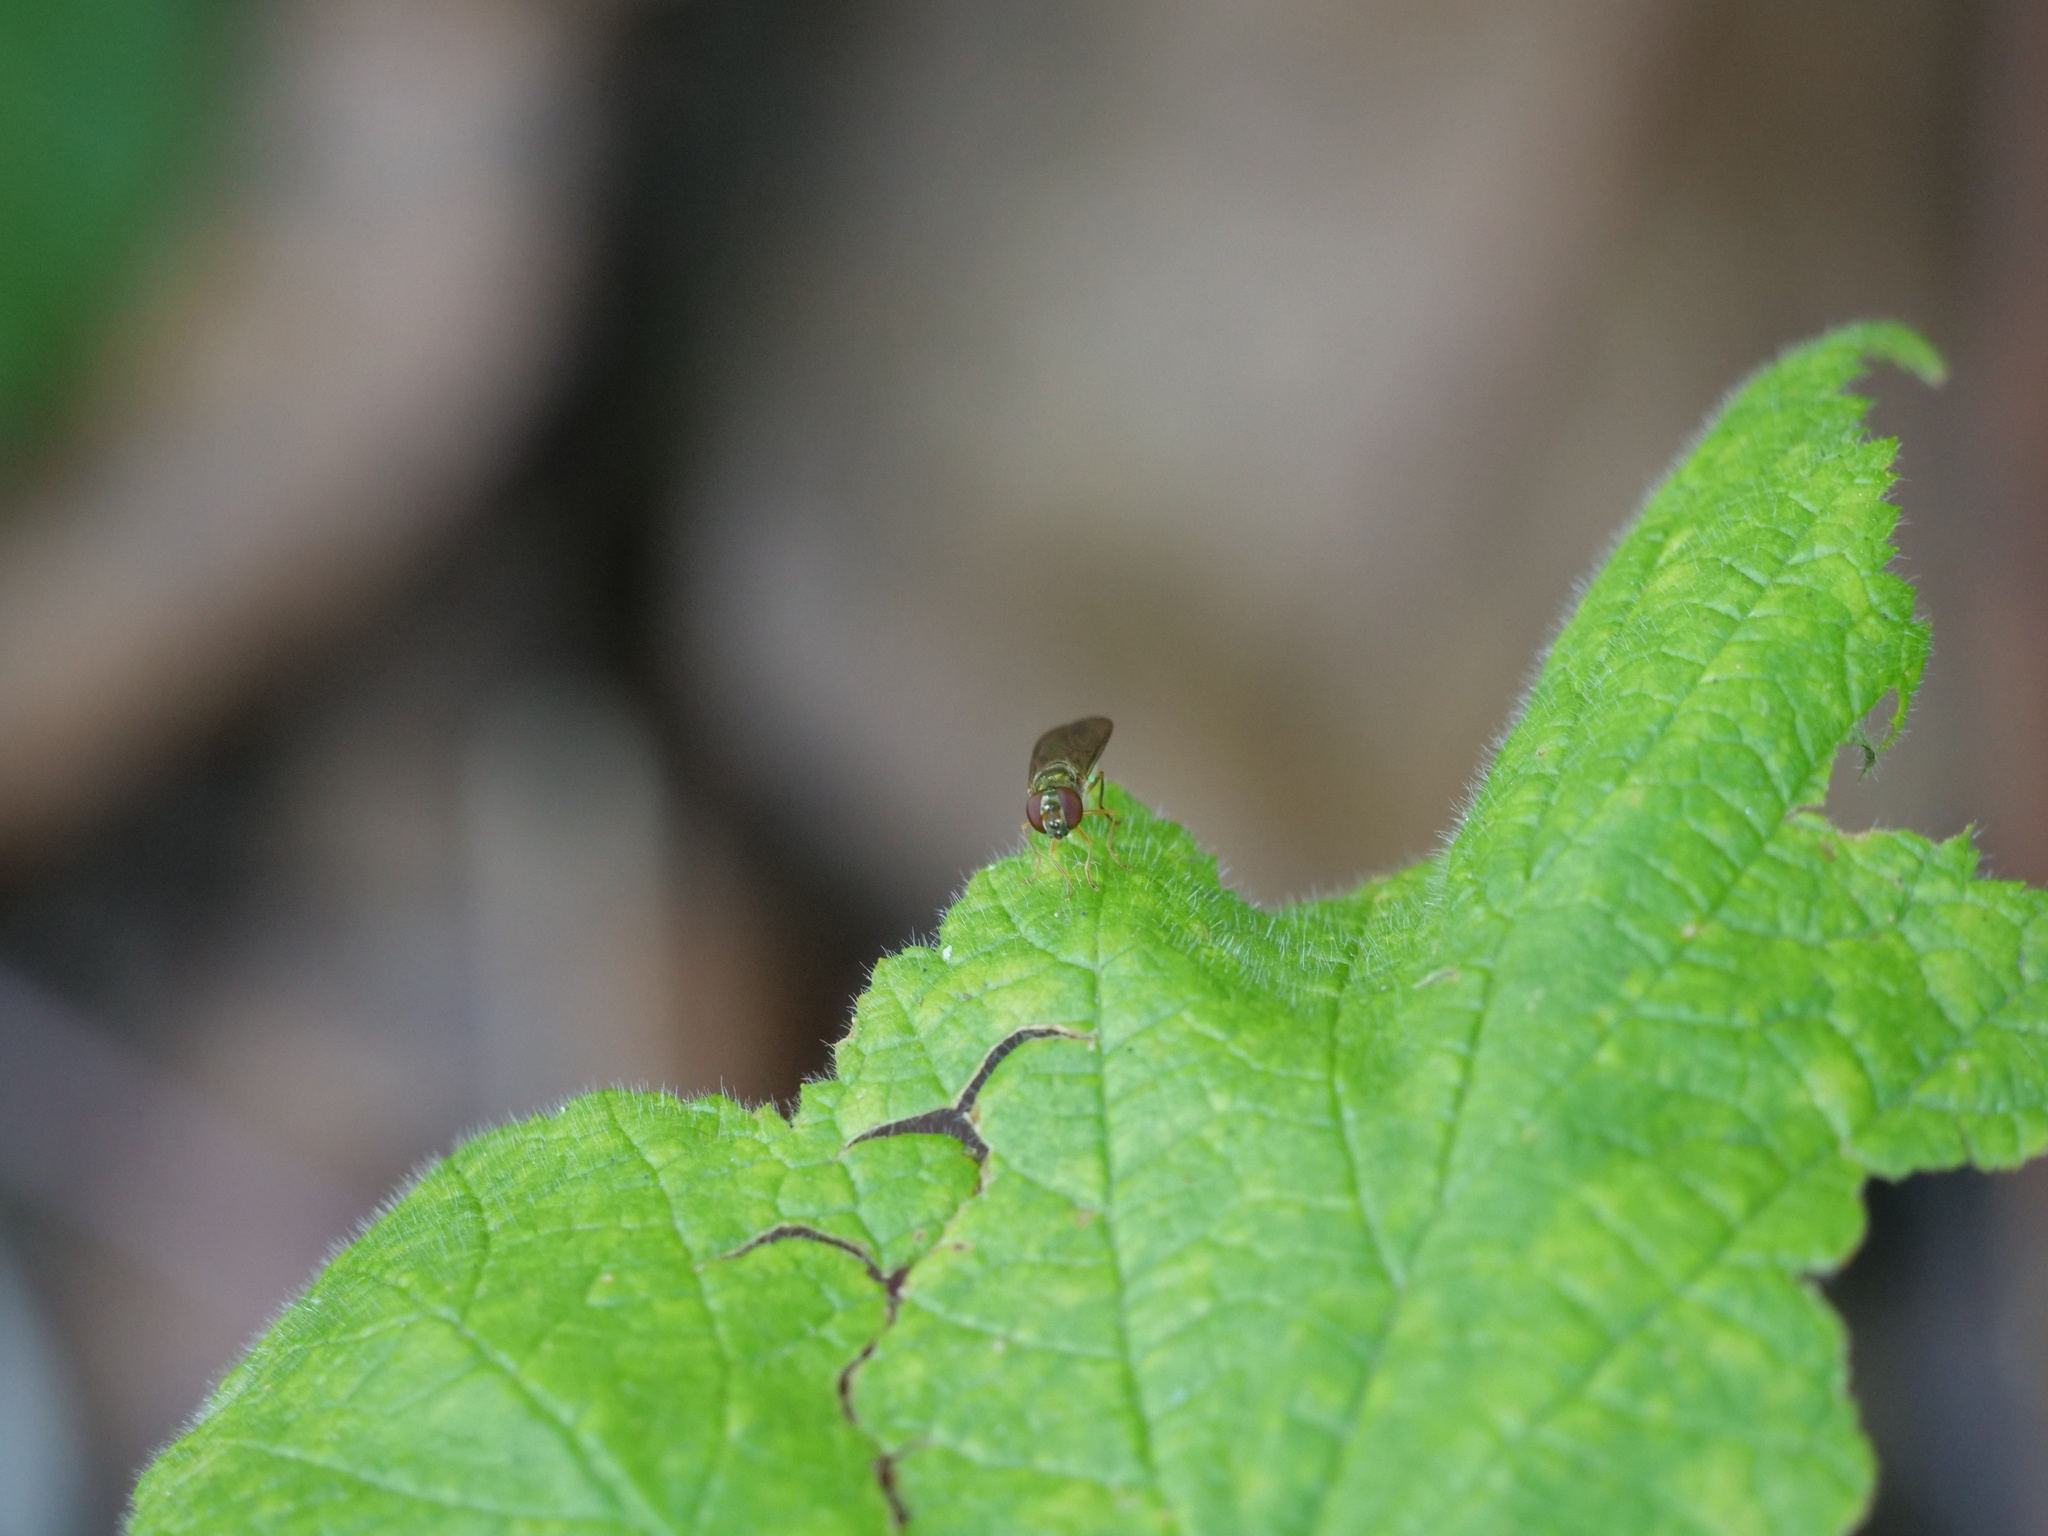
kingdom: Animalia
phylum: Arthropoda
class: Insecta
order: Diptera
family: Syrphidae
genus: Melanostoma
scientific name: Melanostoma mellina
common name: Hover fly
